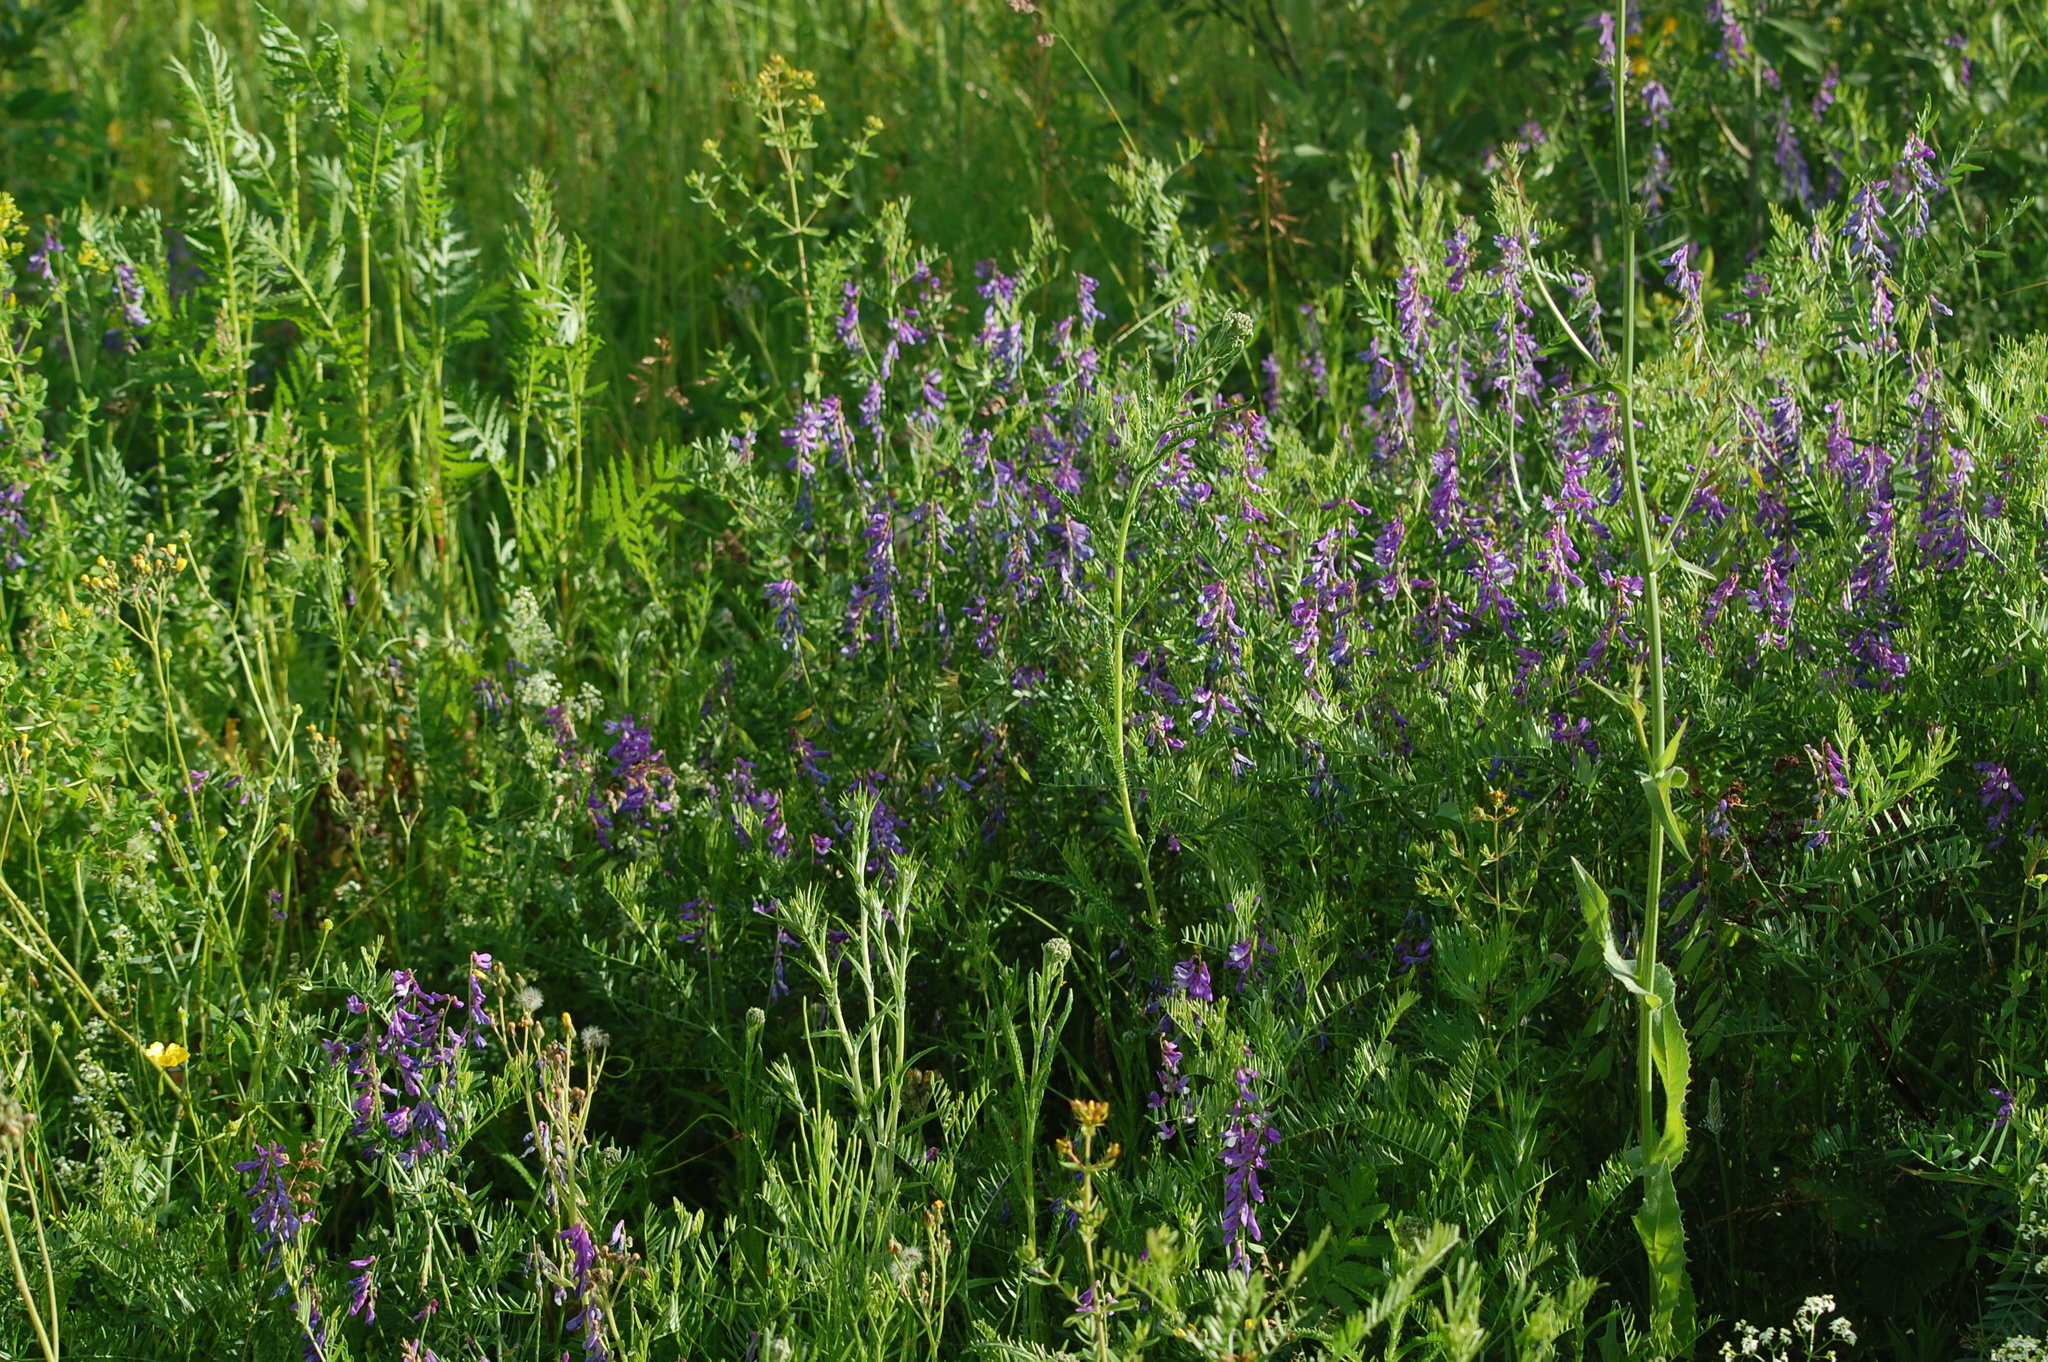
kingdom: Plantae
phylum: Tracheophyta
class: Magnoliopsida
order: Fabales
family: Fabaceae
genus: Vicia
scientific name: Vicia tenuifolia
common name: Fine-leaved vetch
